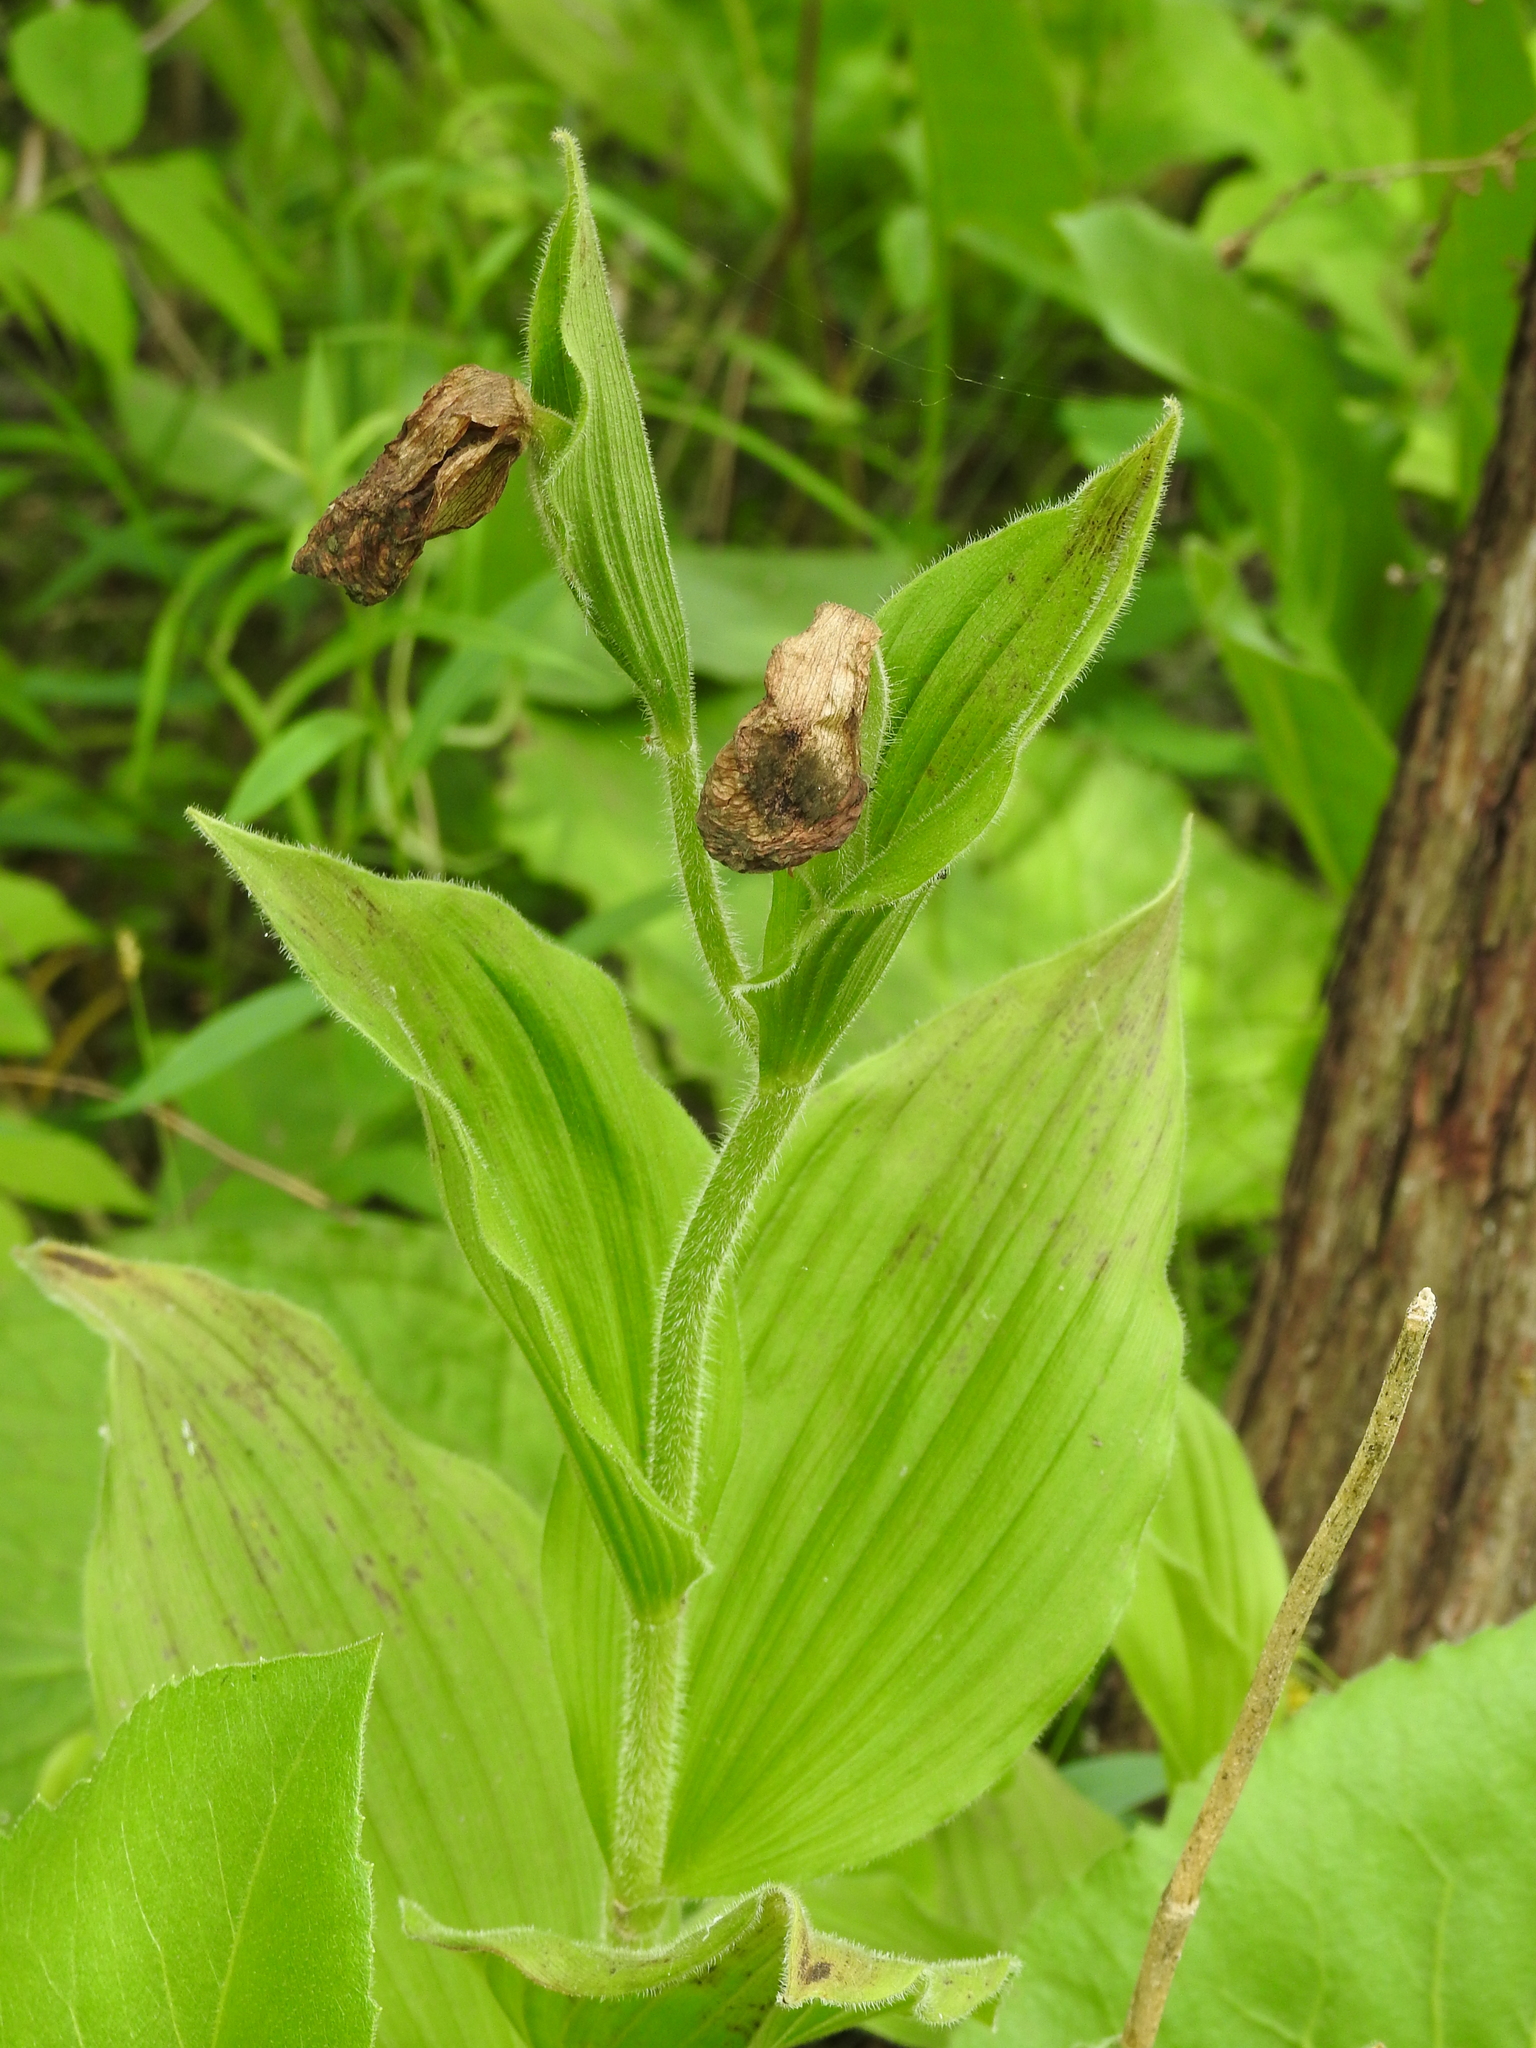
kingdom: Plantae
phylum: Tracheophyta
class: Liliopsida
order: Asparagales
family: Orchidaceae
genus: Cypripedium
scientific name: Cypripedium reginae
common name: Queen lady's-slipper
